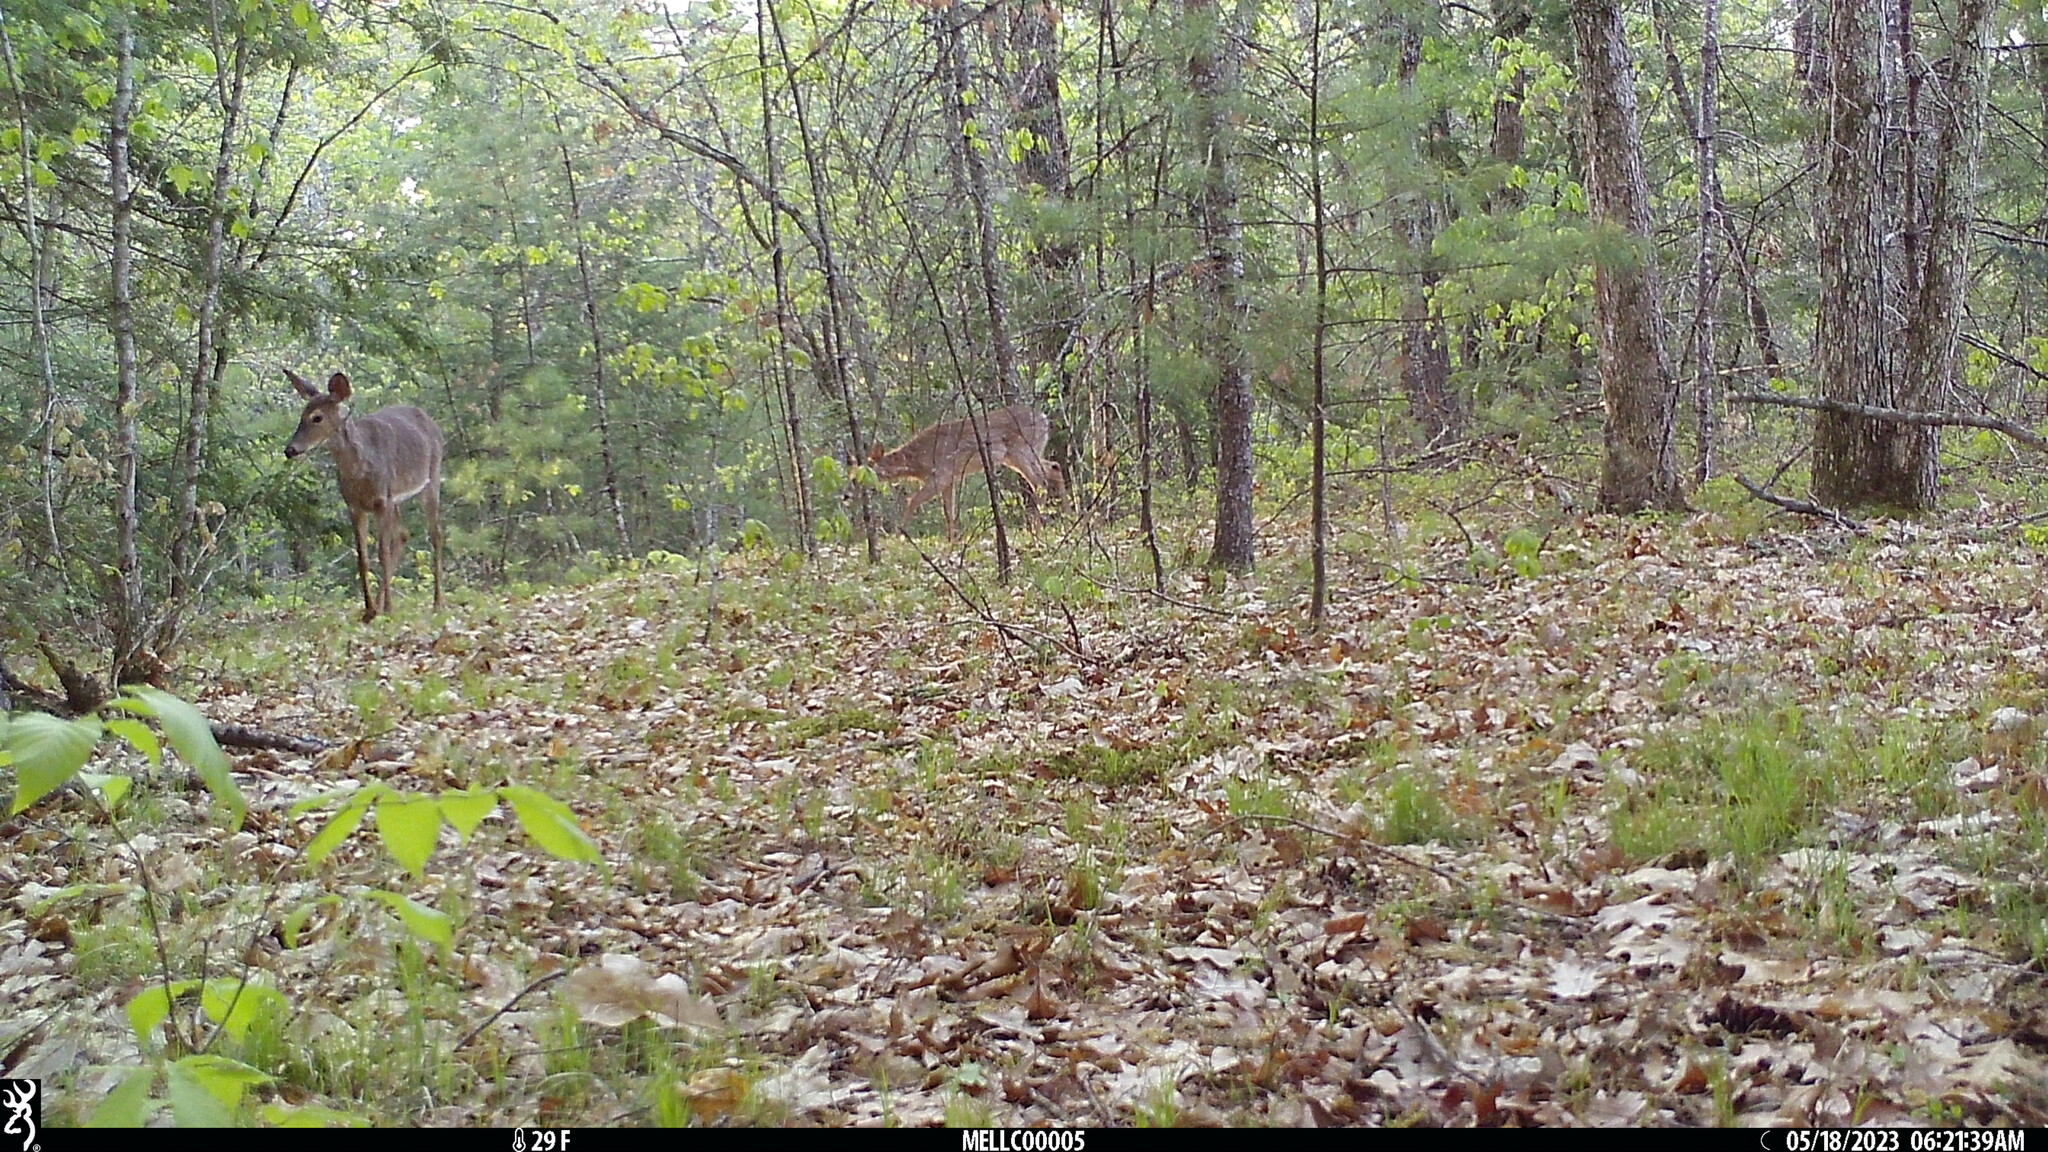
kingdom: Animalia
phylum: Chordata
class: Mammalia
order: Artiodactyla
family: Cervidae
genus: Odocoileus
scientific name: Odocoileus virginianus
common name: White-tailed deer
